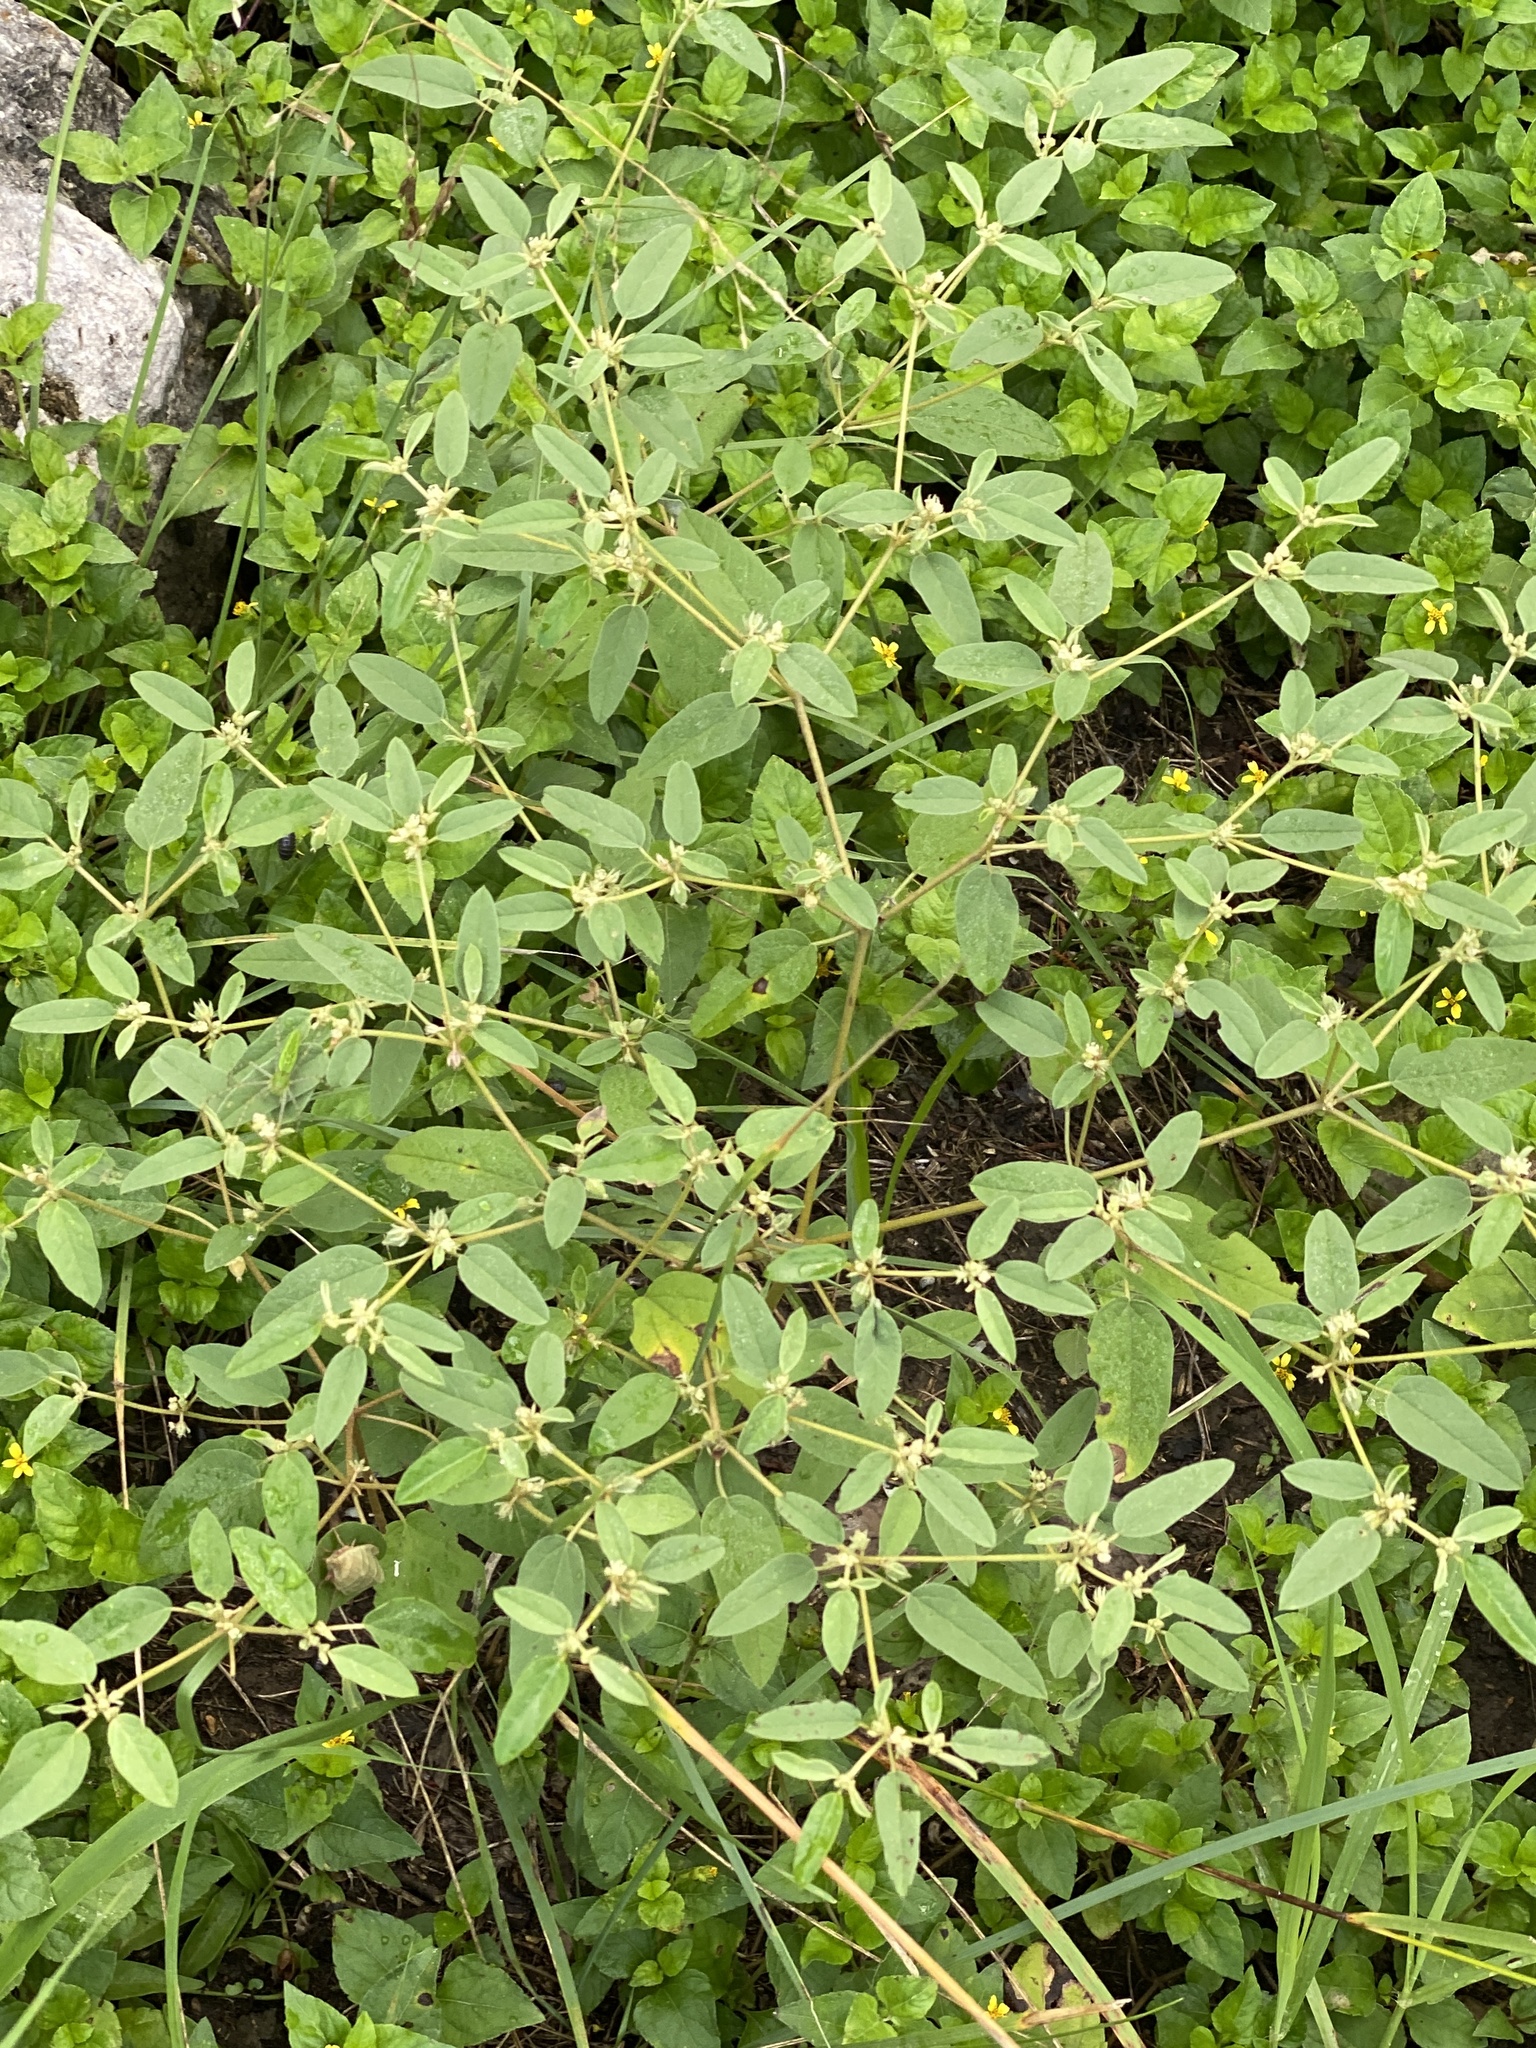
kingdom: Plantae
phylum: Tracheophyta
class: Magnoliopsida
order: Malpighiales
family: Euphorbiaceae
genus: Croton
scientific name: Croton monanthogynus
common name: One-seed croton
